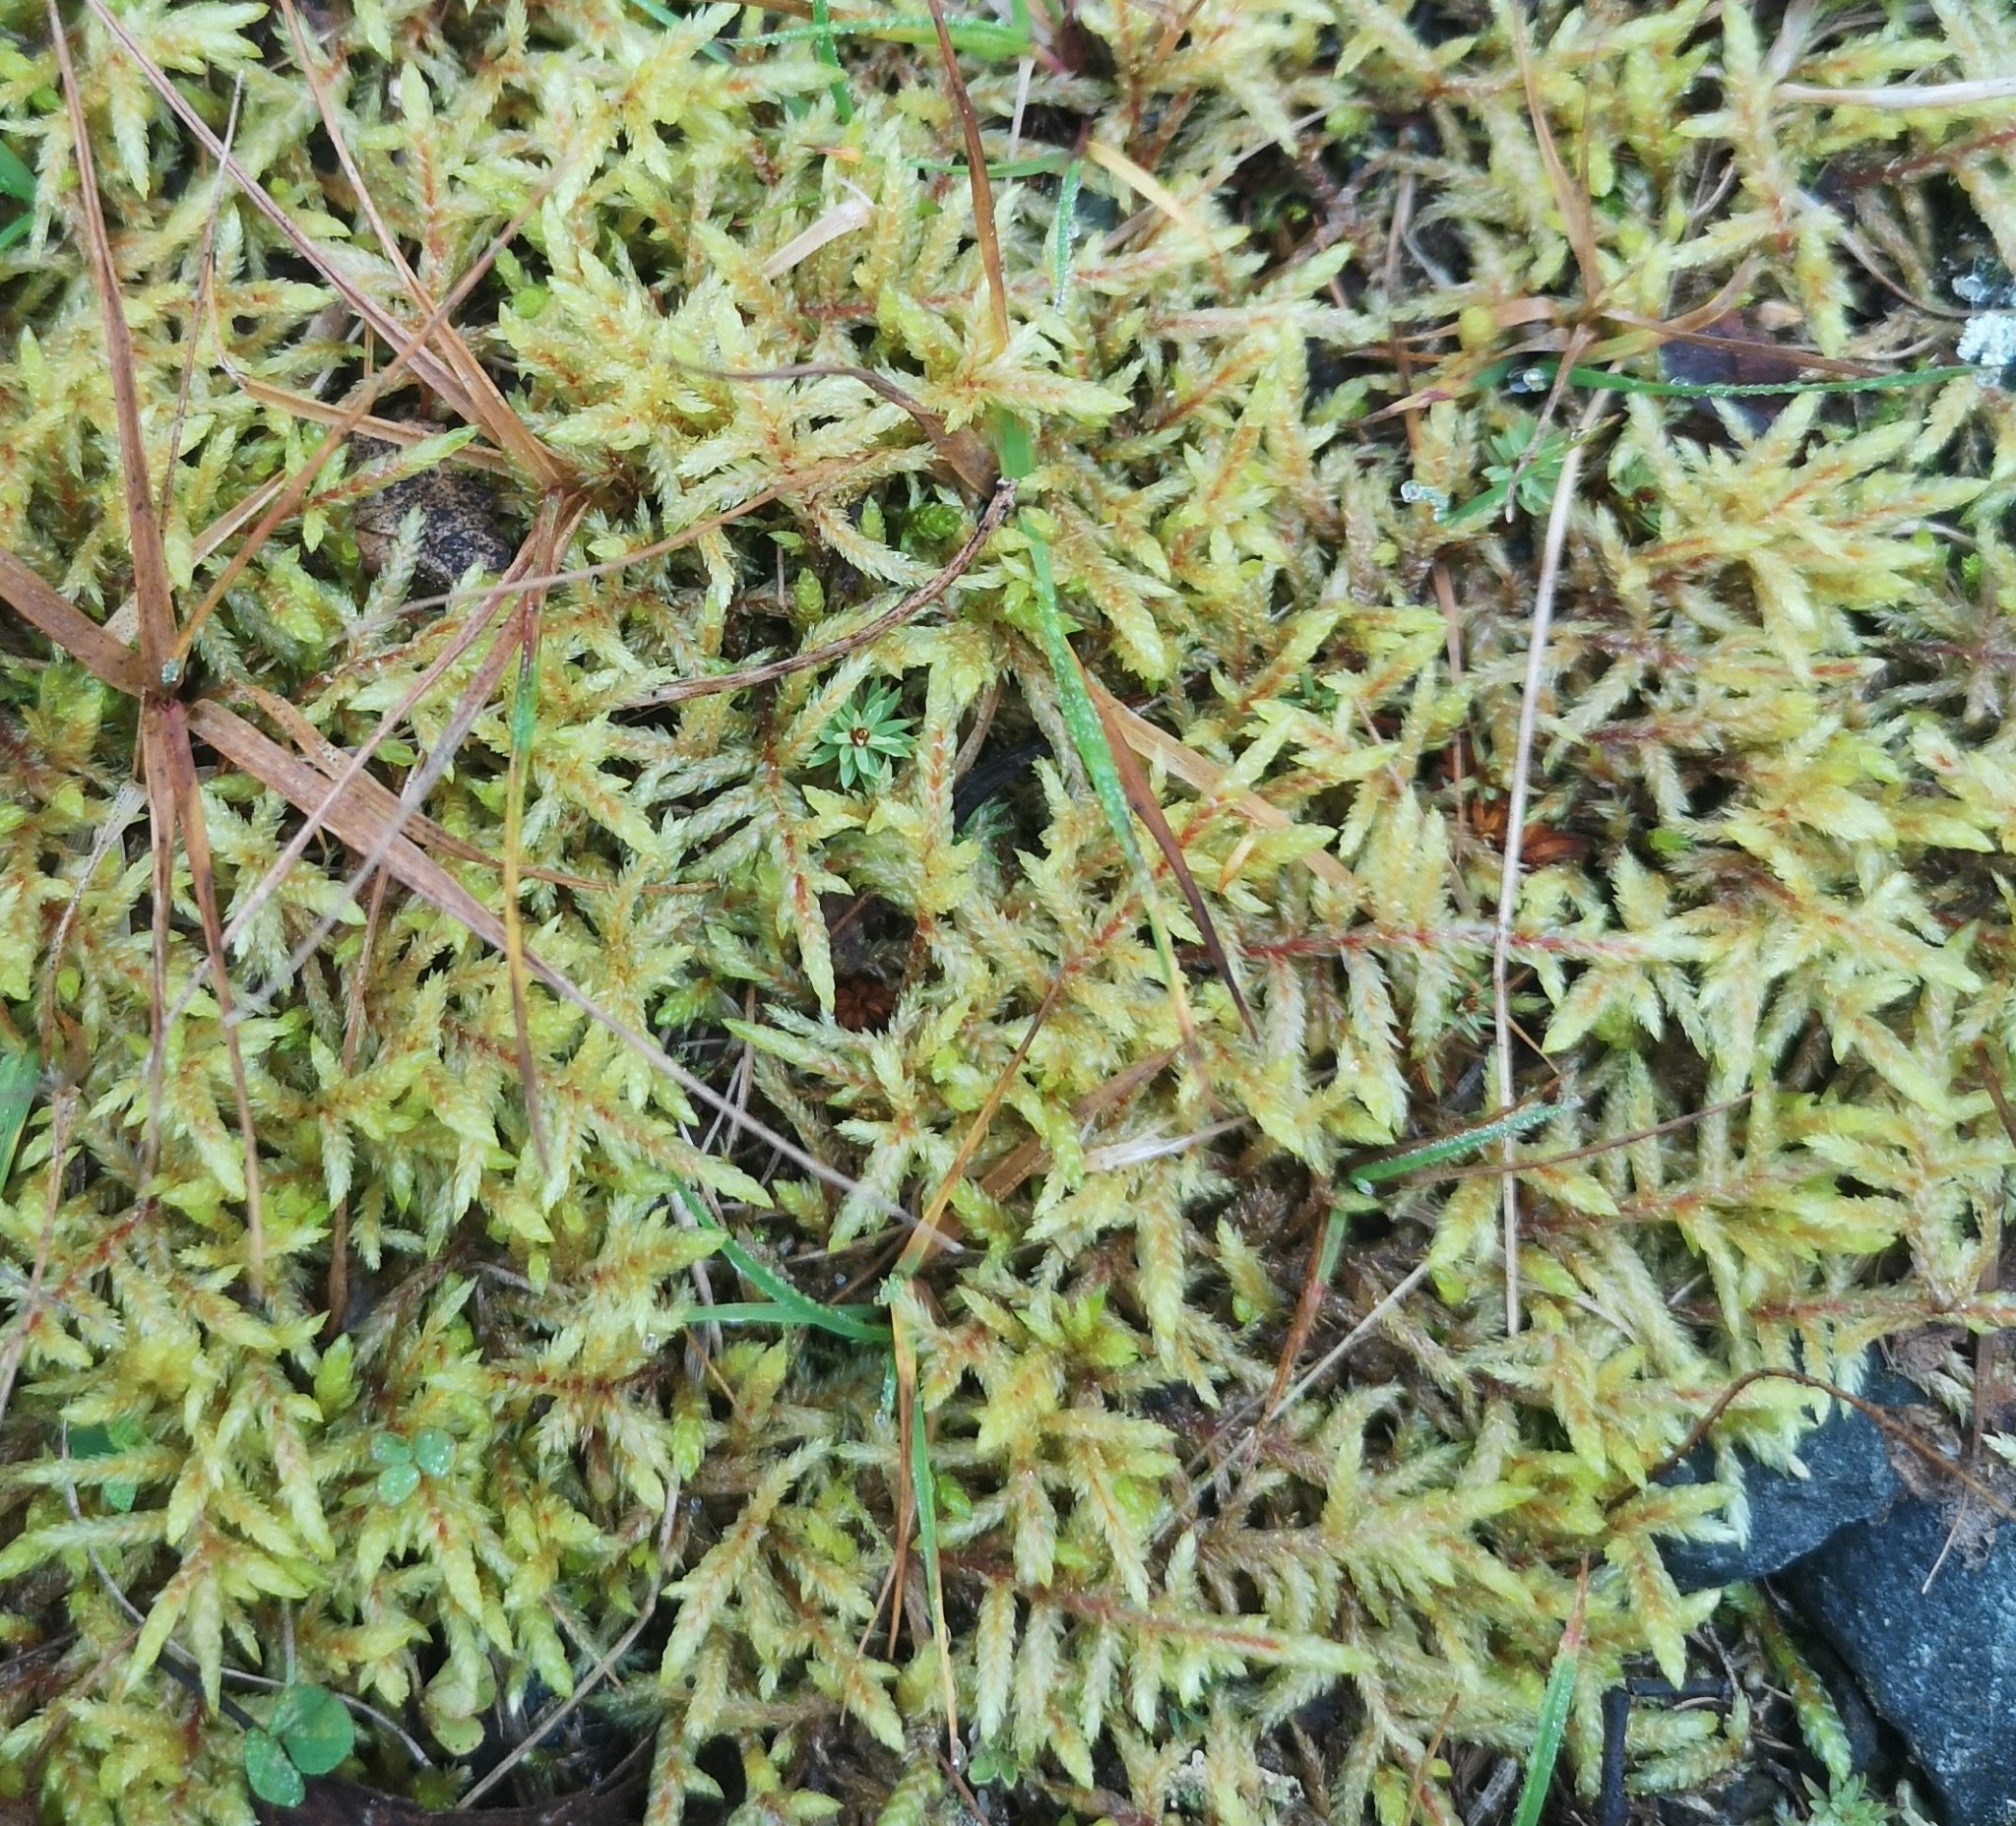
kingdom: Plantae
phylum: Bryophyta
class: Bryopsida
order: Hypnales
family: Hylocomiaceae
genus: Pleurozium
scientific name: Pleurozium schreberi
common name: Red-stemmed feather moss
